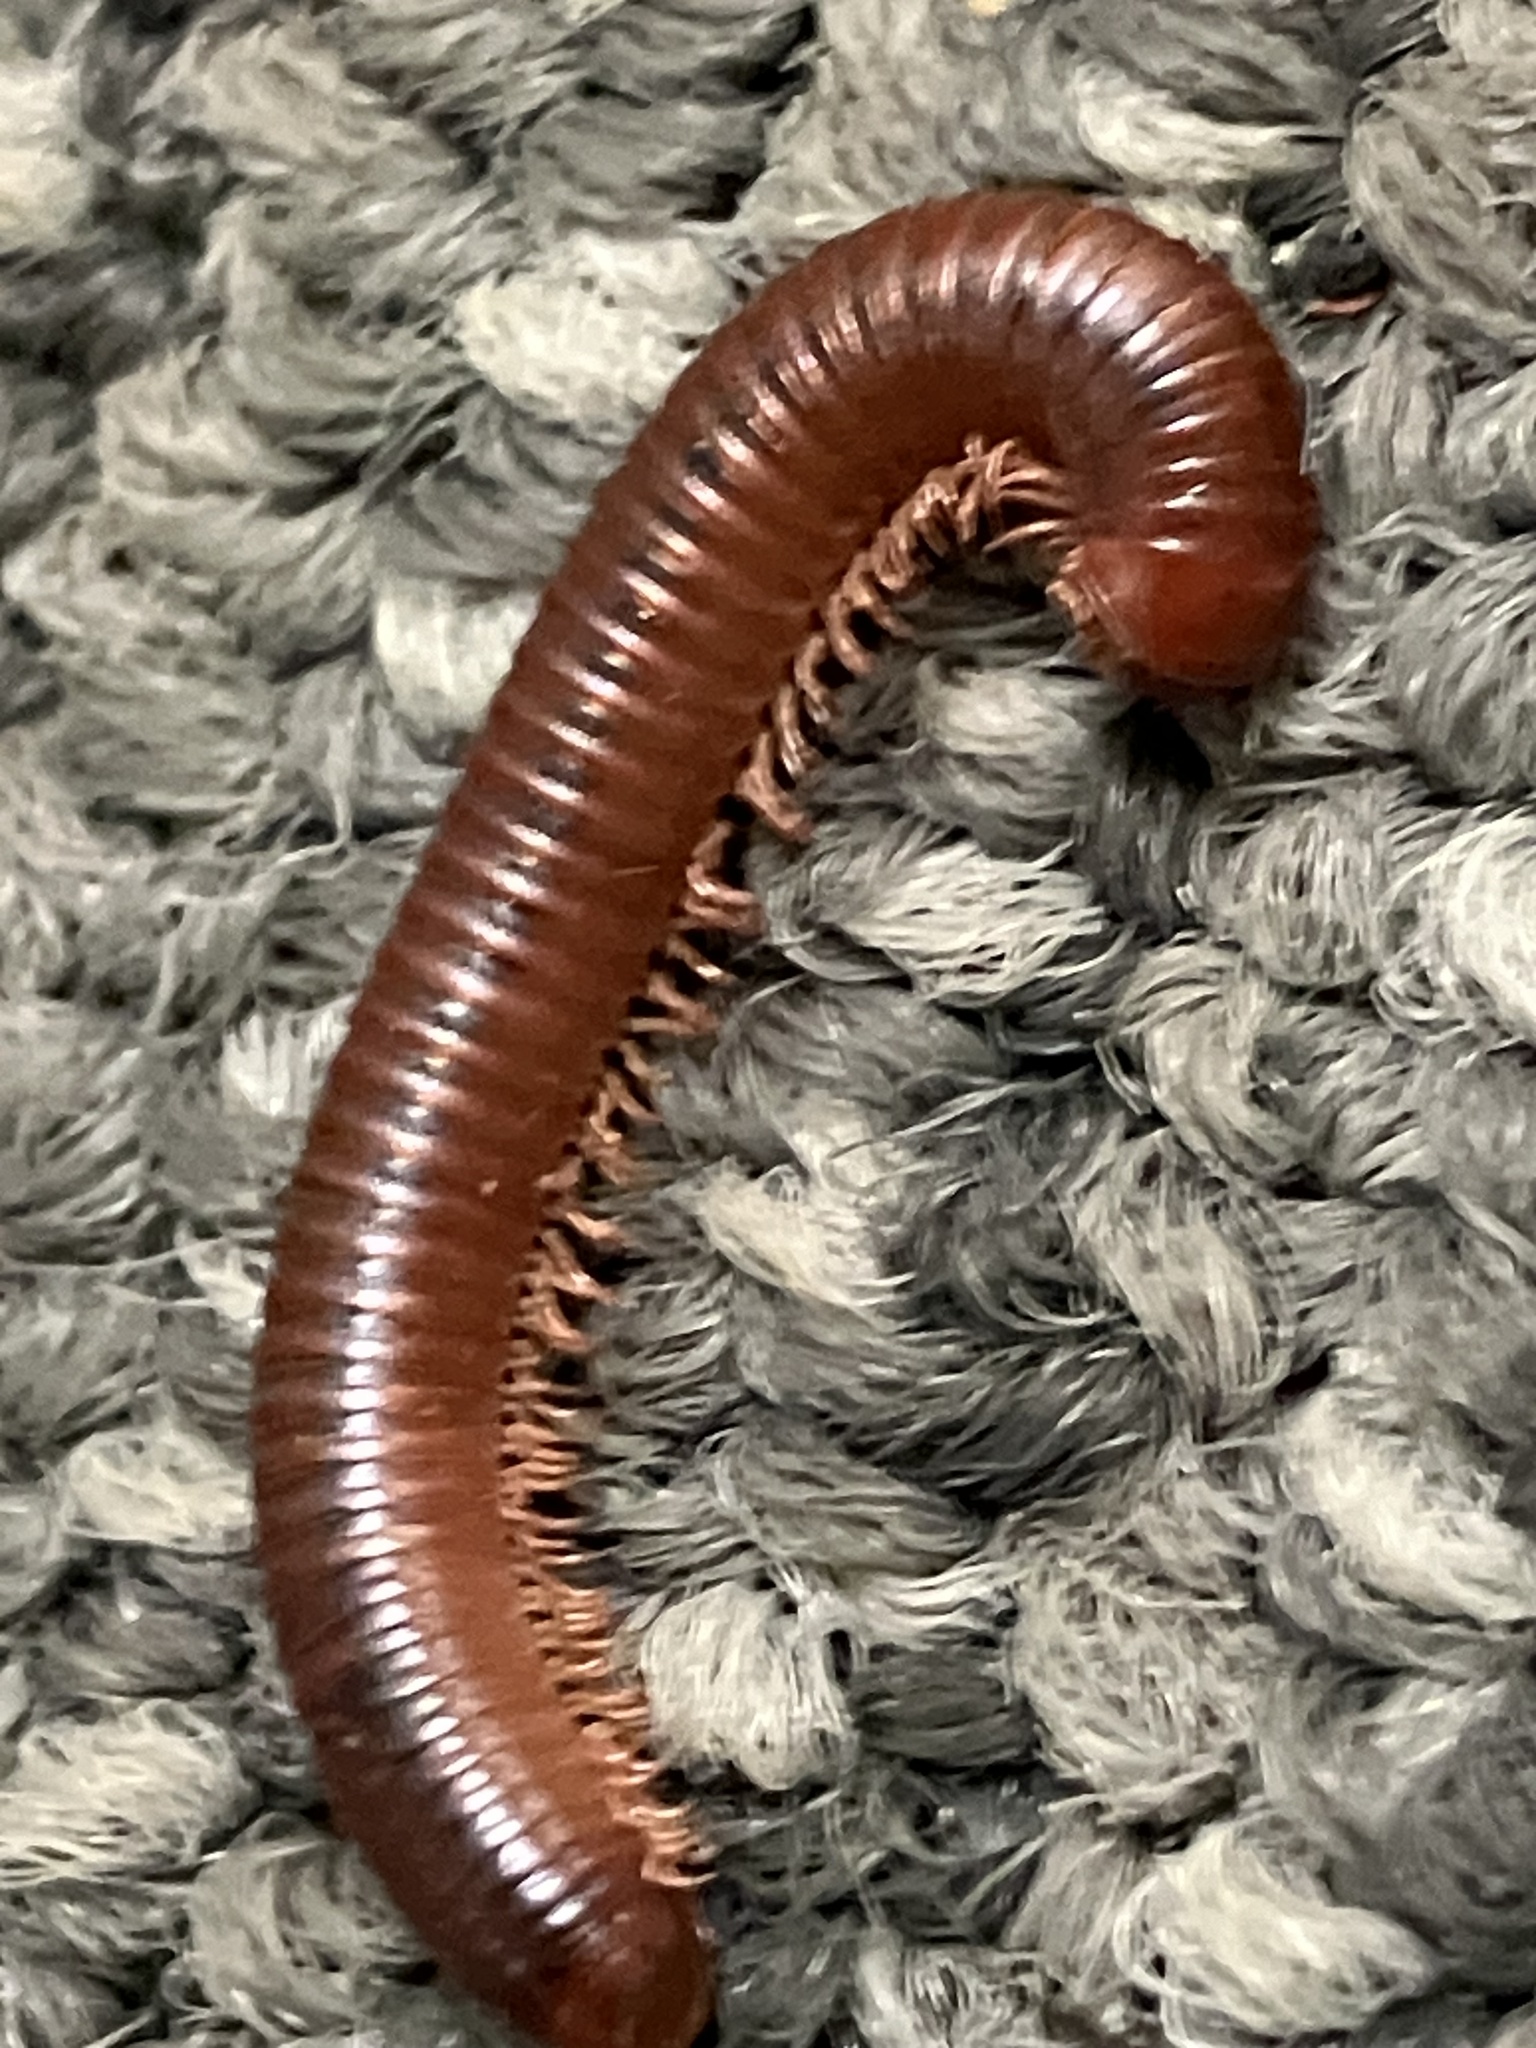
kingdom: Animalia
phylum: Arthropoda
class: Diplopoda
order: Spirobolida
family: Pachybolidae
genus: Trigoniulus
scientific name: Trigoniulus corallinus
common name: Millipede
